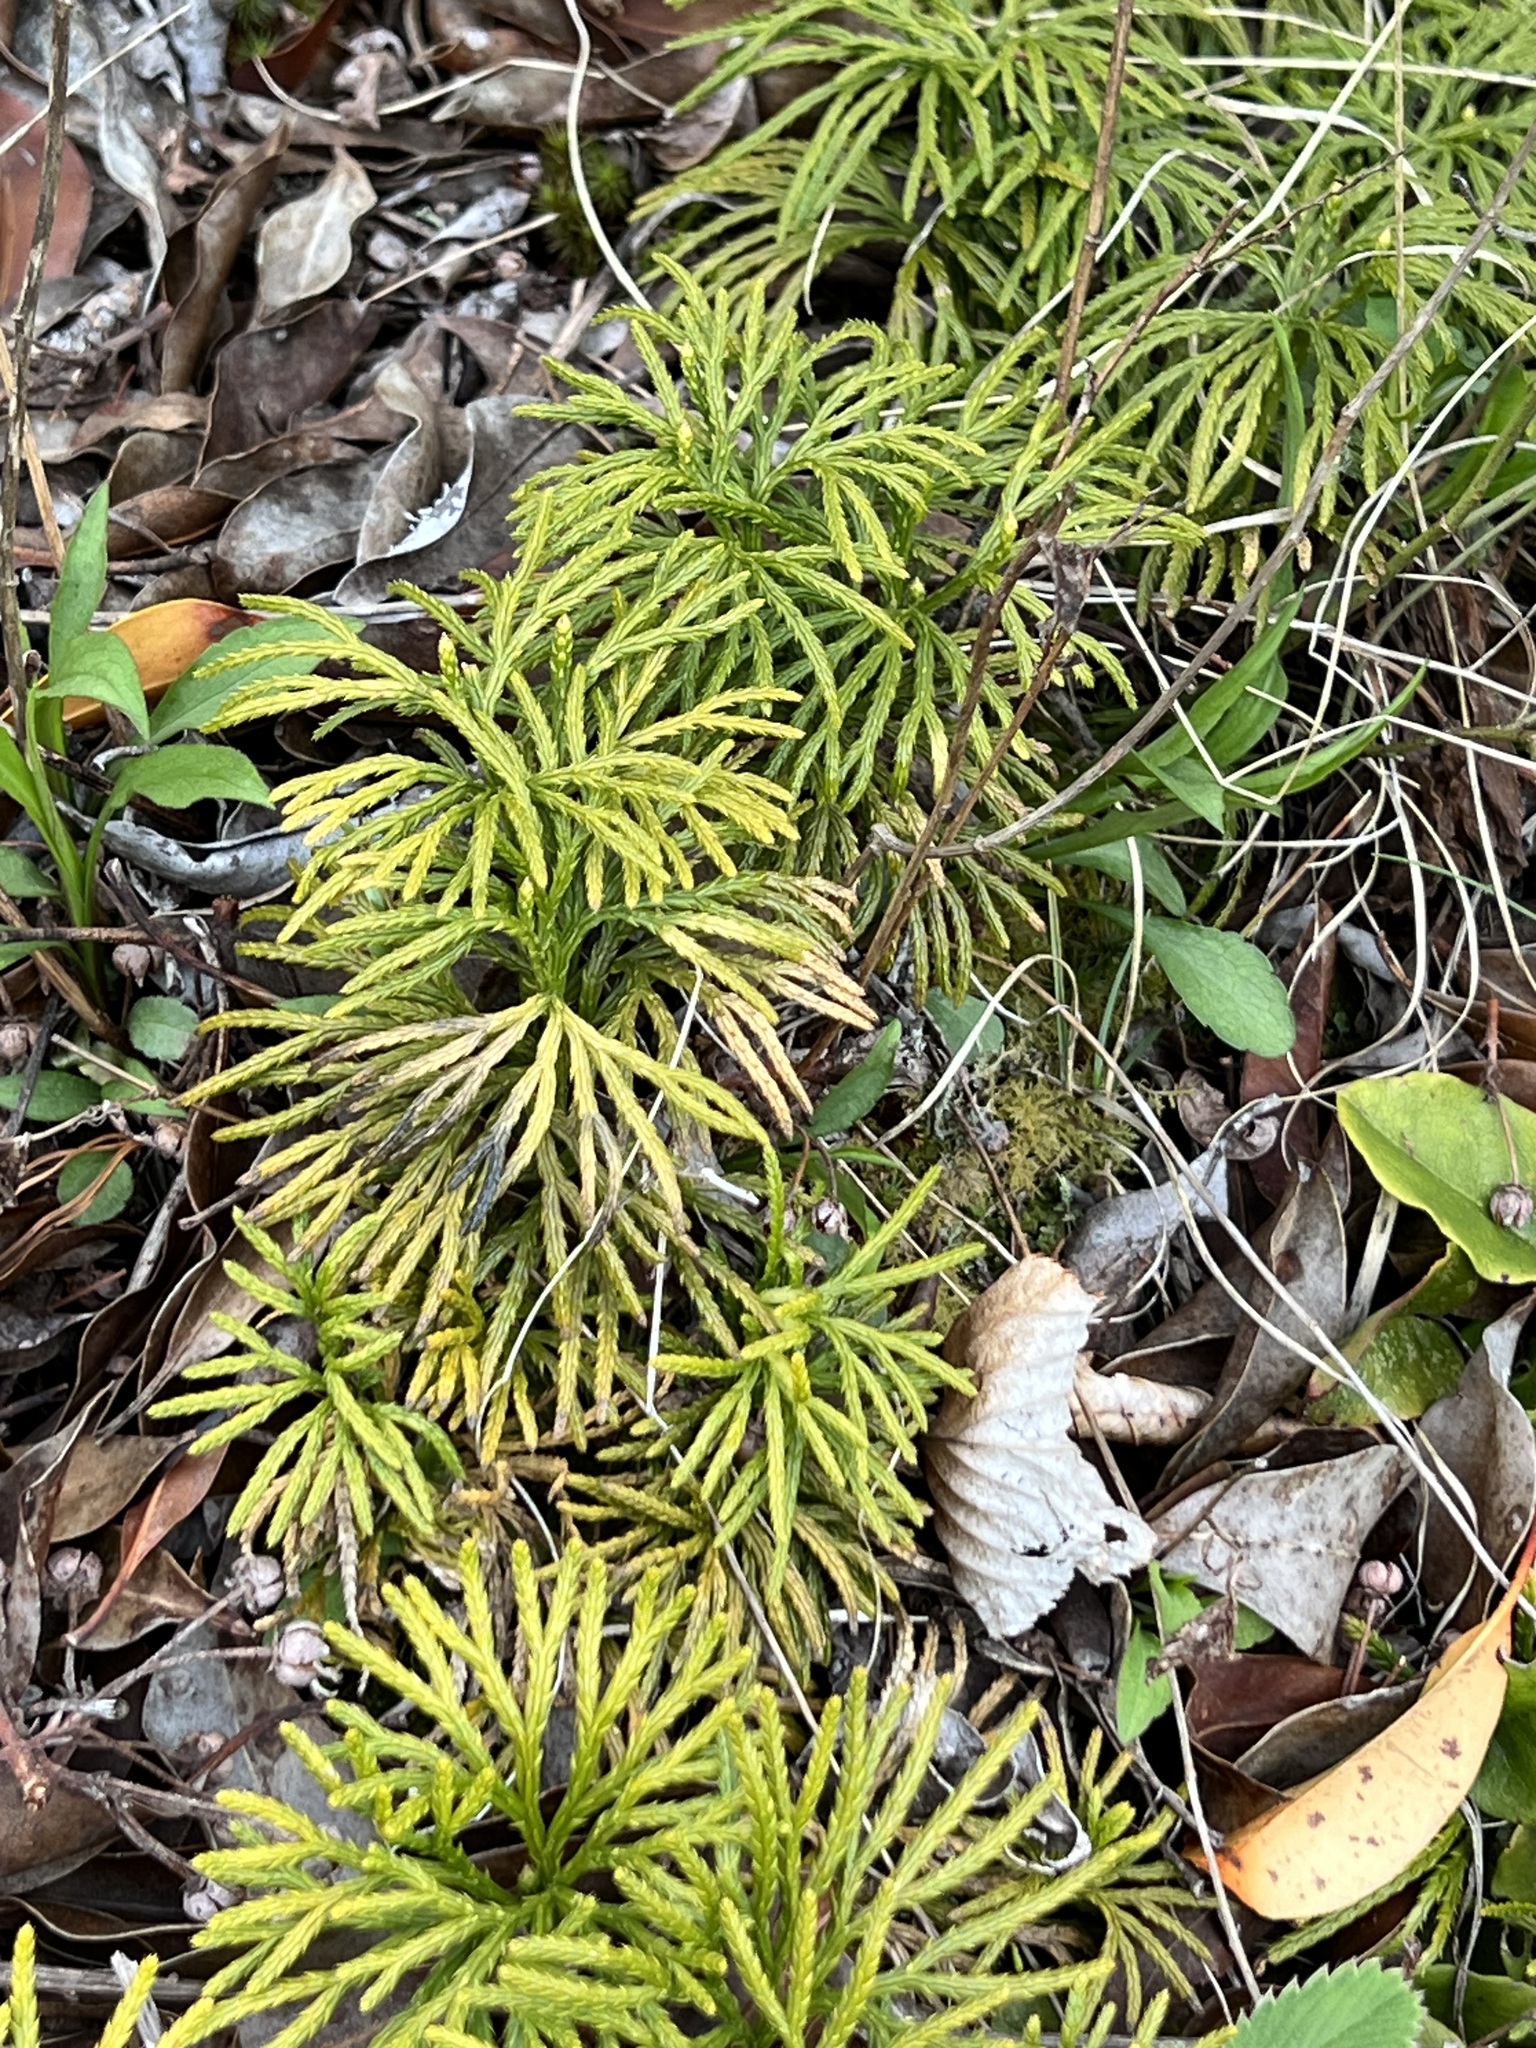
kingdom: Plantae
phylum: Tracheophyta
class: Lycopodiopsida
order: Lycopodiales
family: Lycopodiaceae
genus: Diphasiastrum
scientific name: Diphasiastrum digitatum
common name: Southern running-pine
